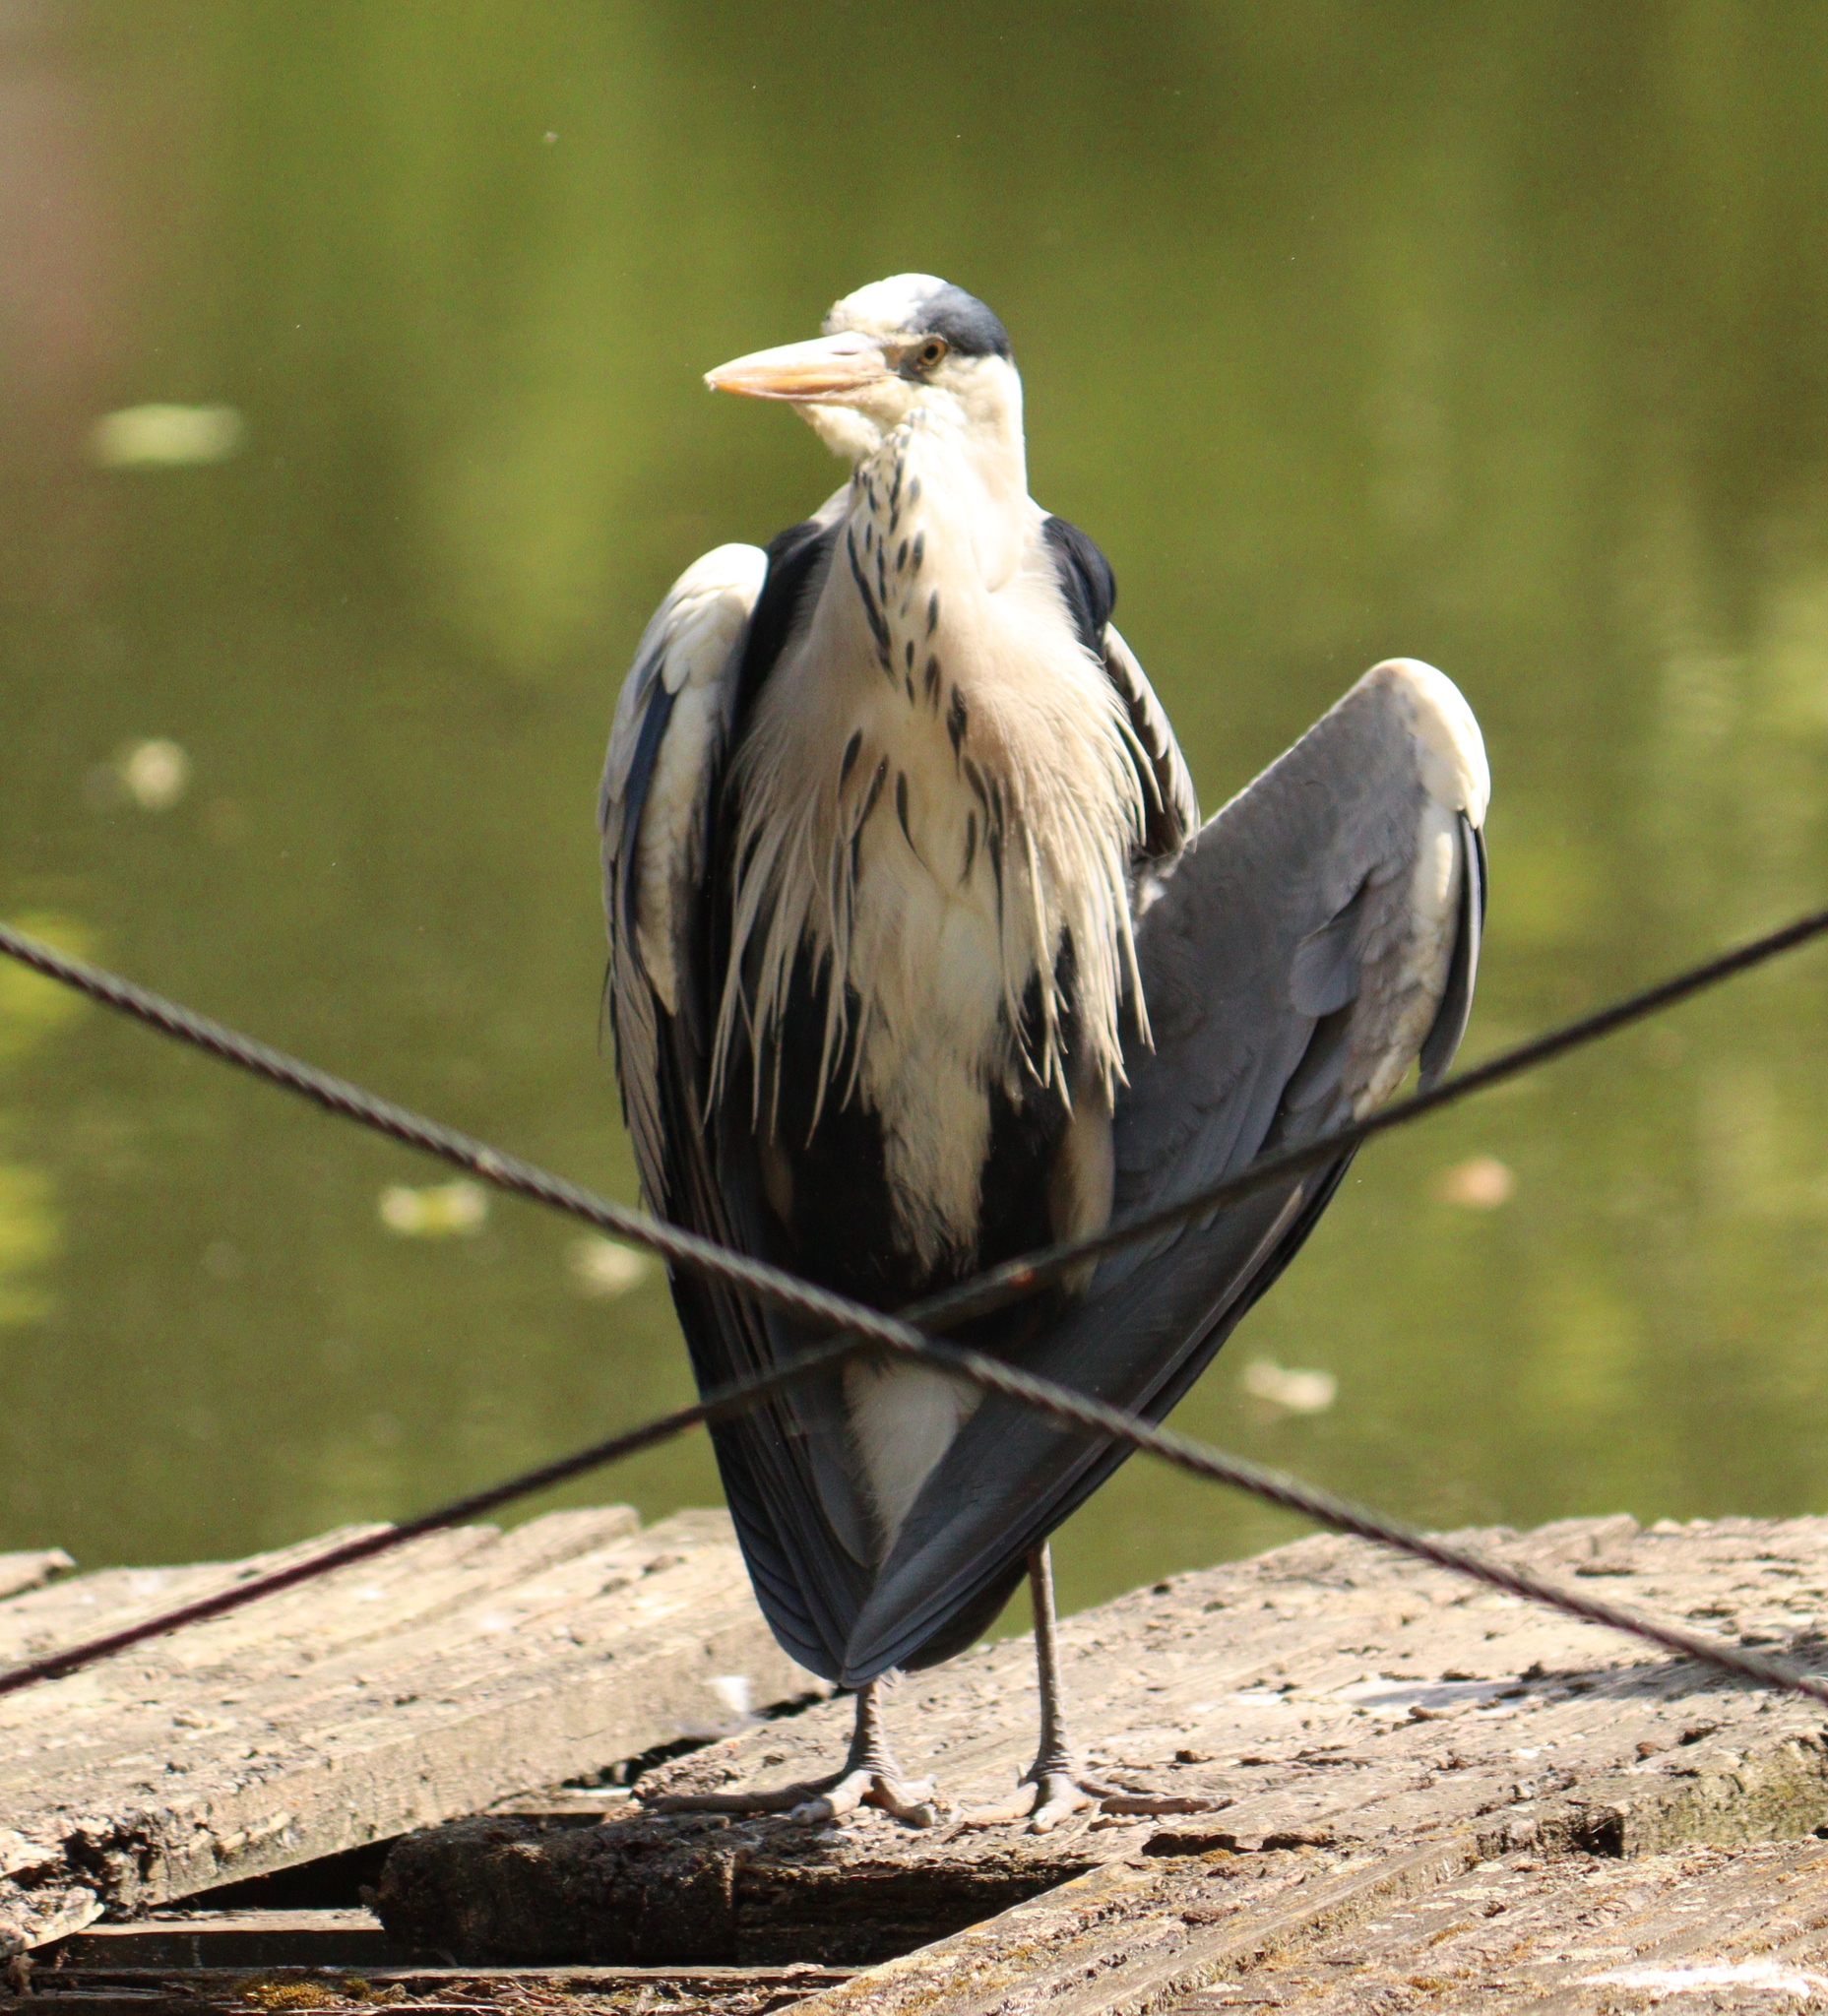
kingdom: Animalia
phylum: Chordata
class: Aves
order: Pelecaniformes
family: Ardeidae
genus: Ardea
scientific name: Ardea cinerea
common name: Grey heron
